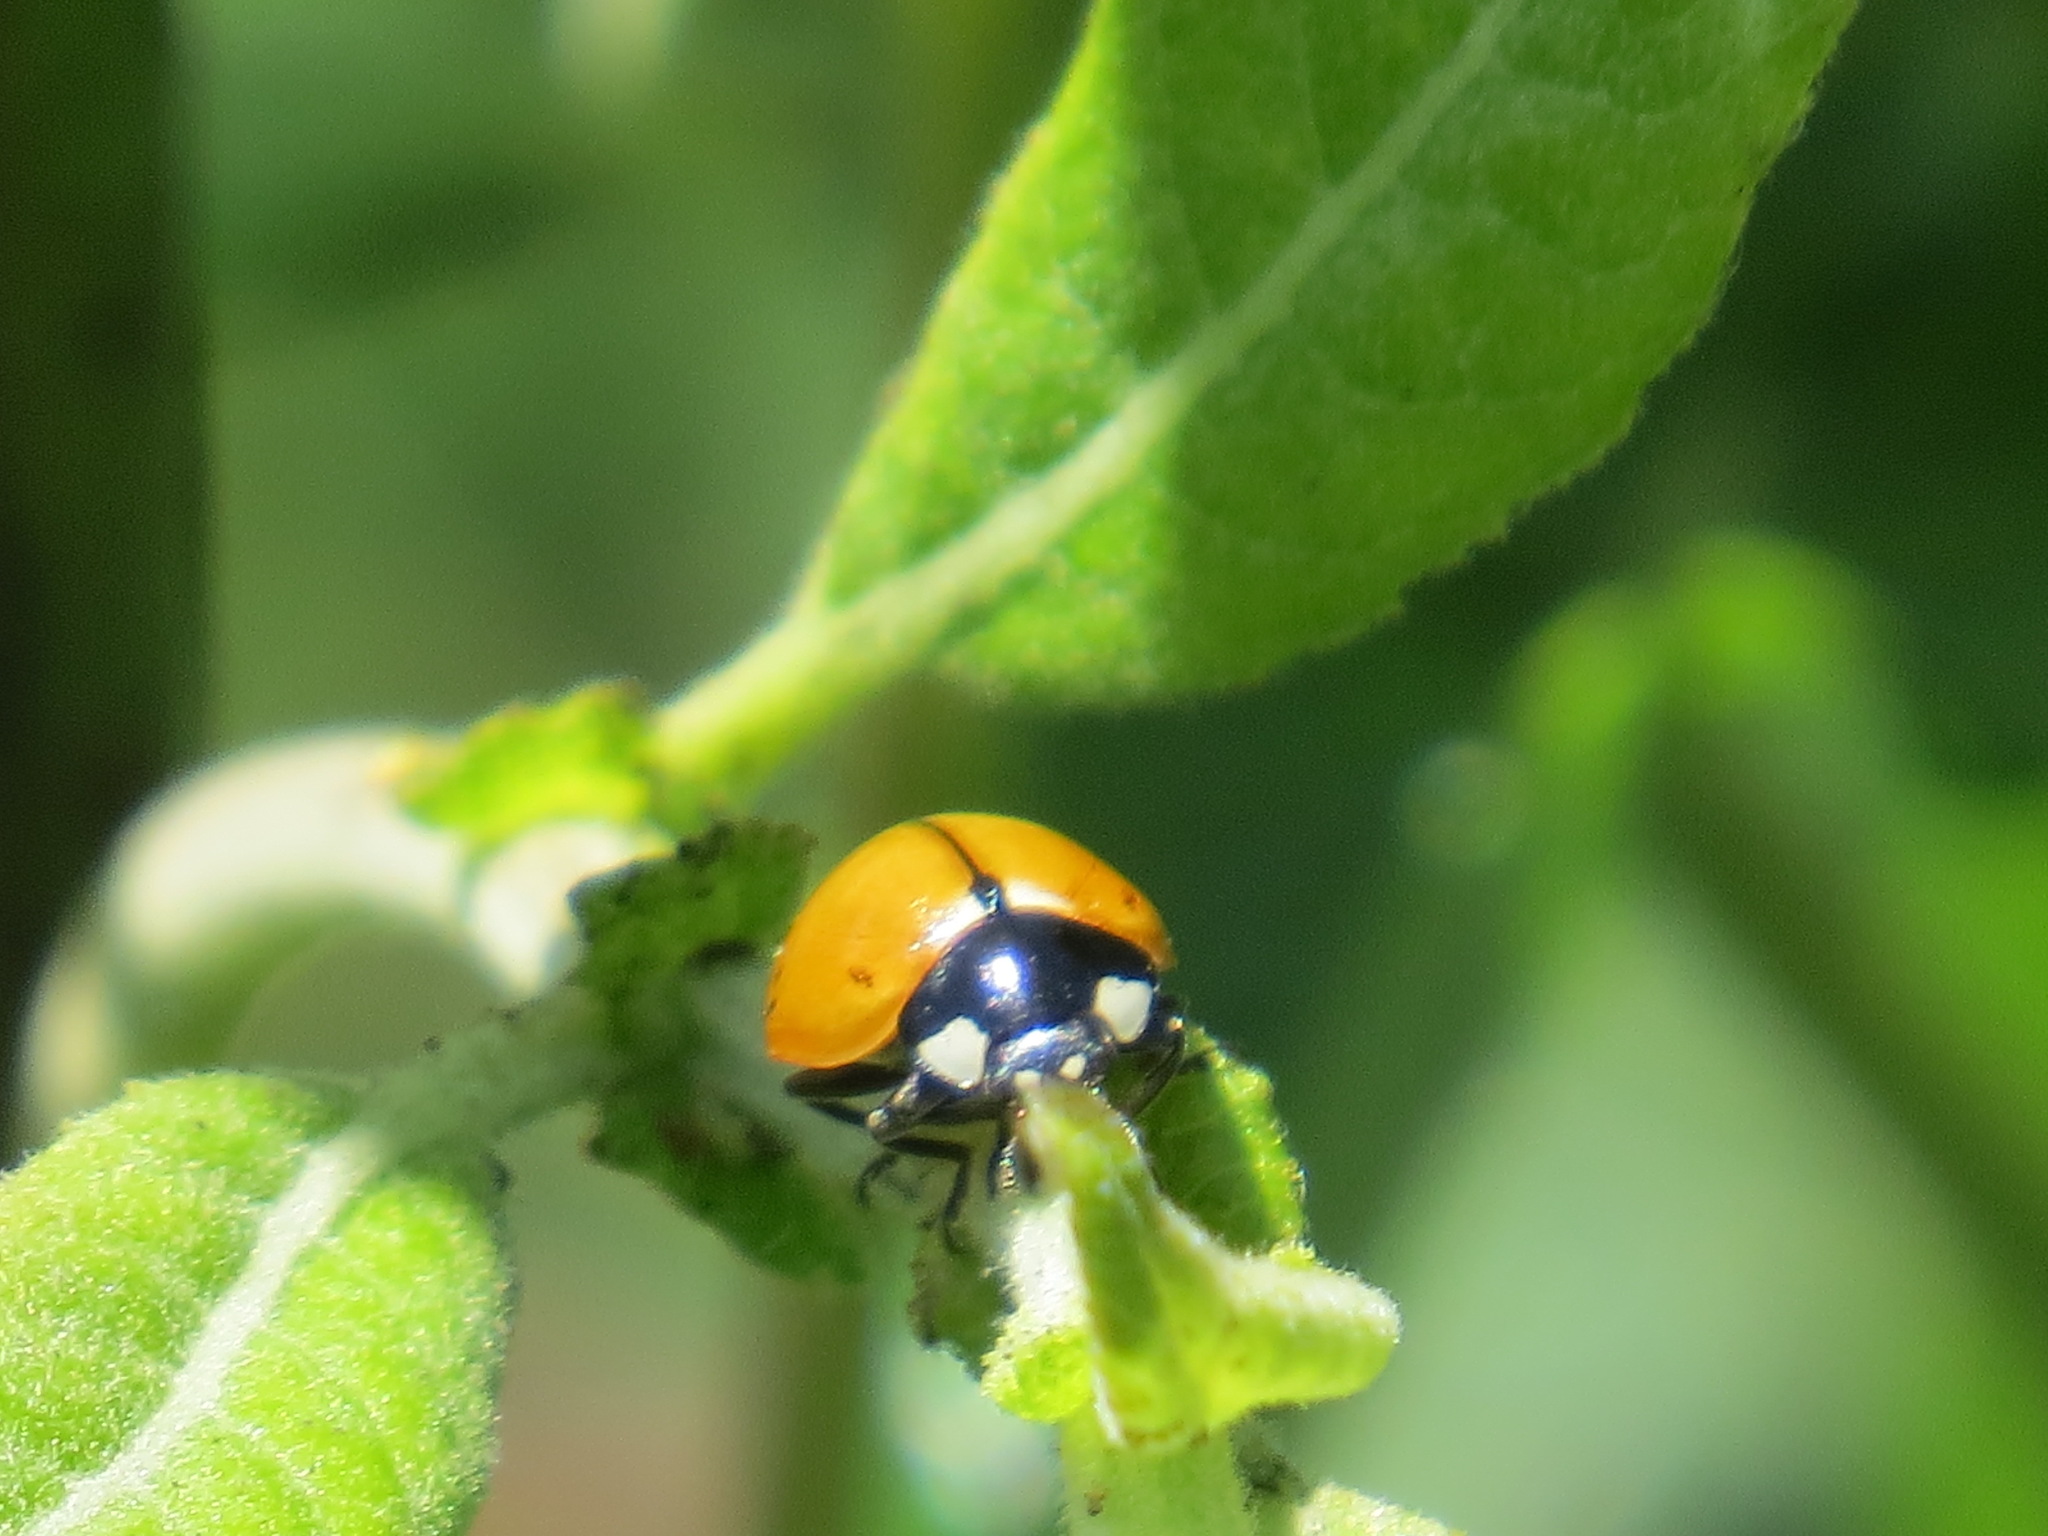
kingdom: Animalia
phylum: Arthropoda
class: Insecta
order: Coleoptera
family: Coccinellidae
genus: Coccinella
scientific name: Coccinella californica
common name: Lady beetle
